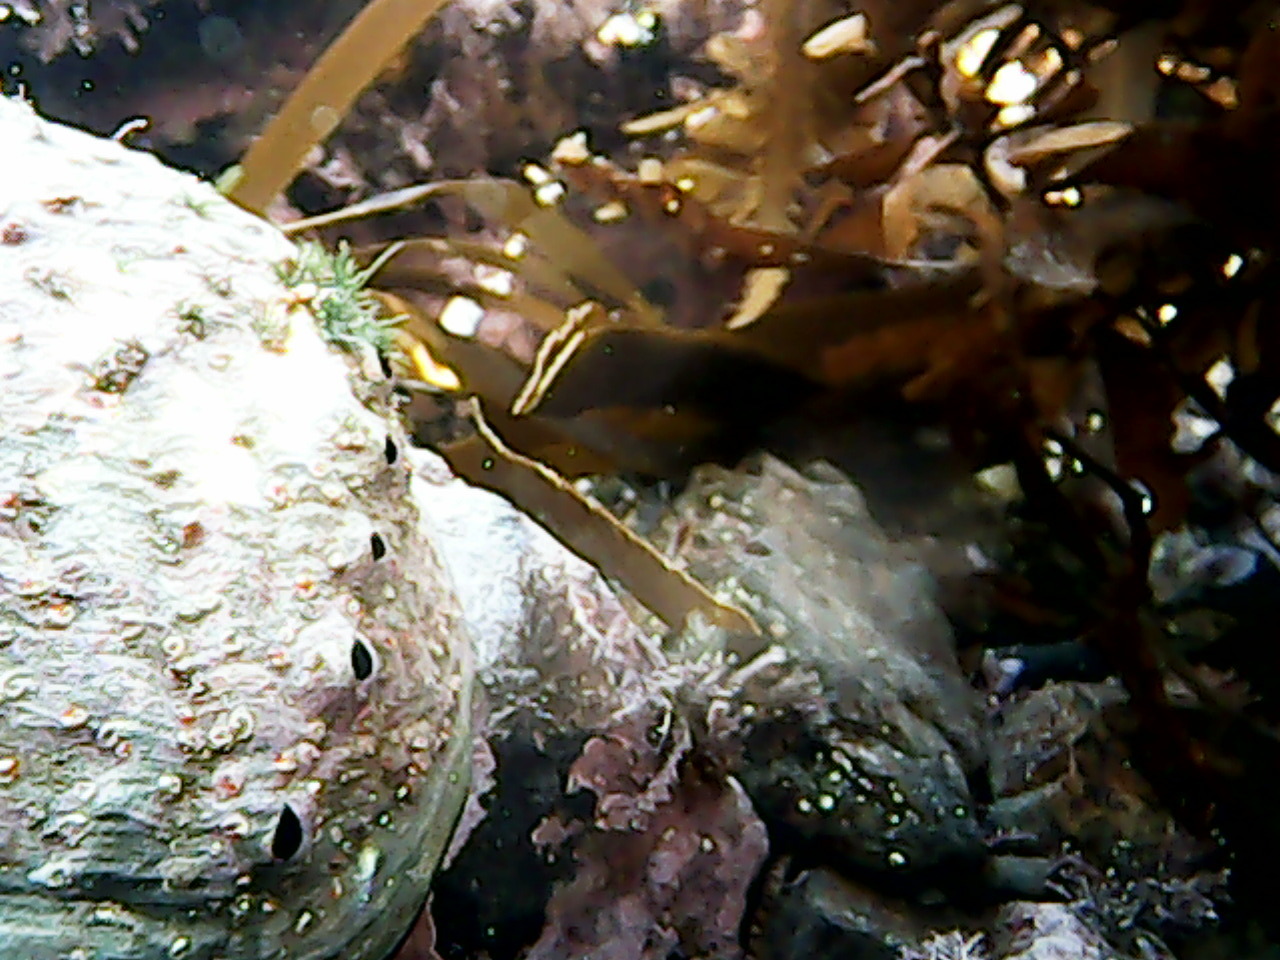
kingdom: Animalia
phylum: Mollusca
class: Gastropoda
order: Lepetellida
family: Haliotidae
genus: Haliotis
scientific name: Haliotis iris
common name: Abalone
